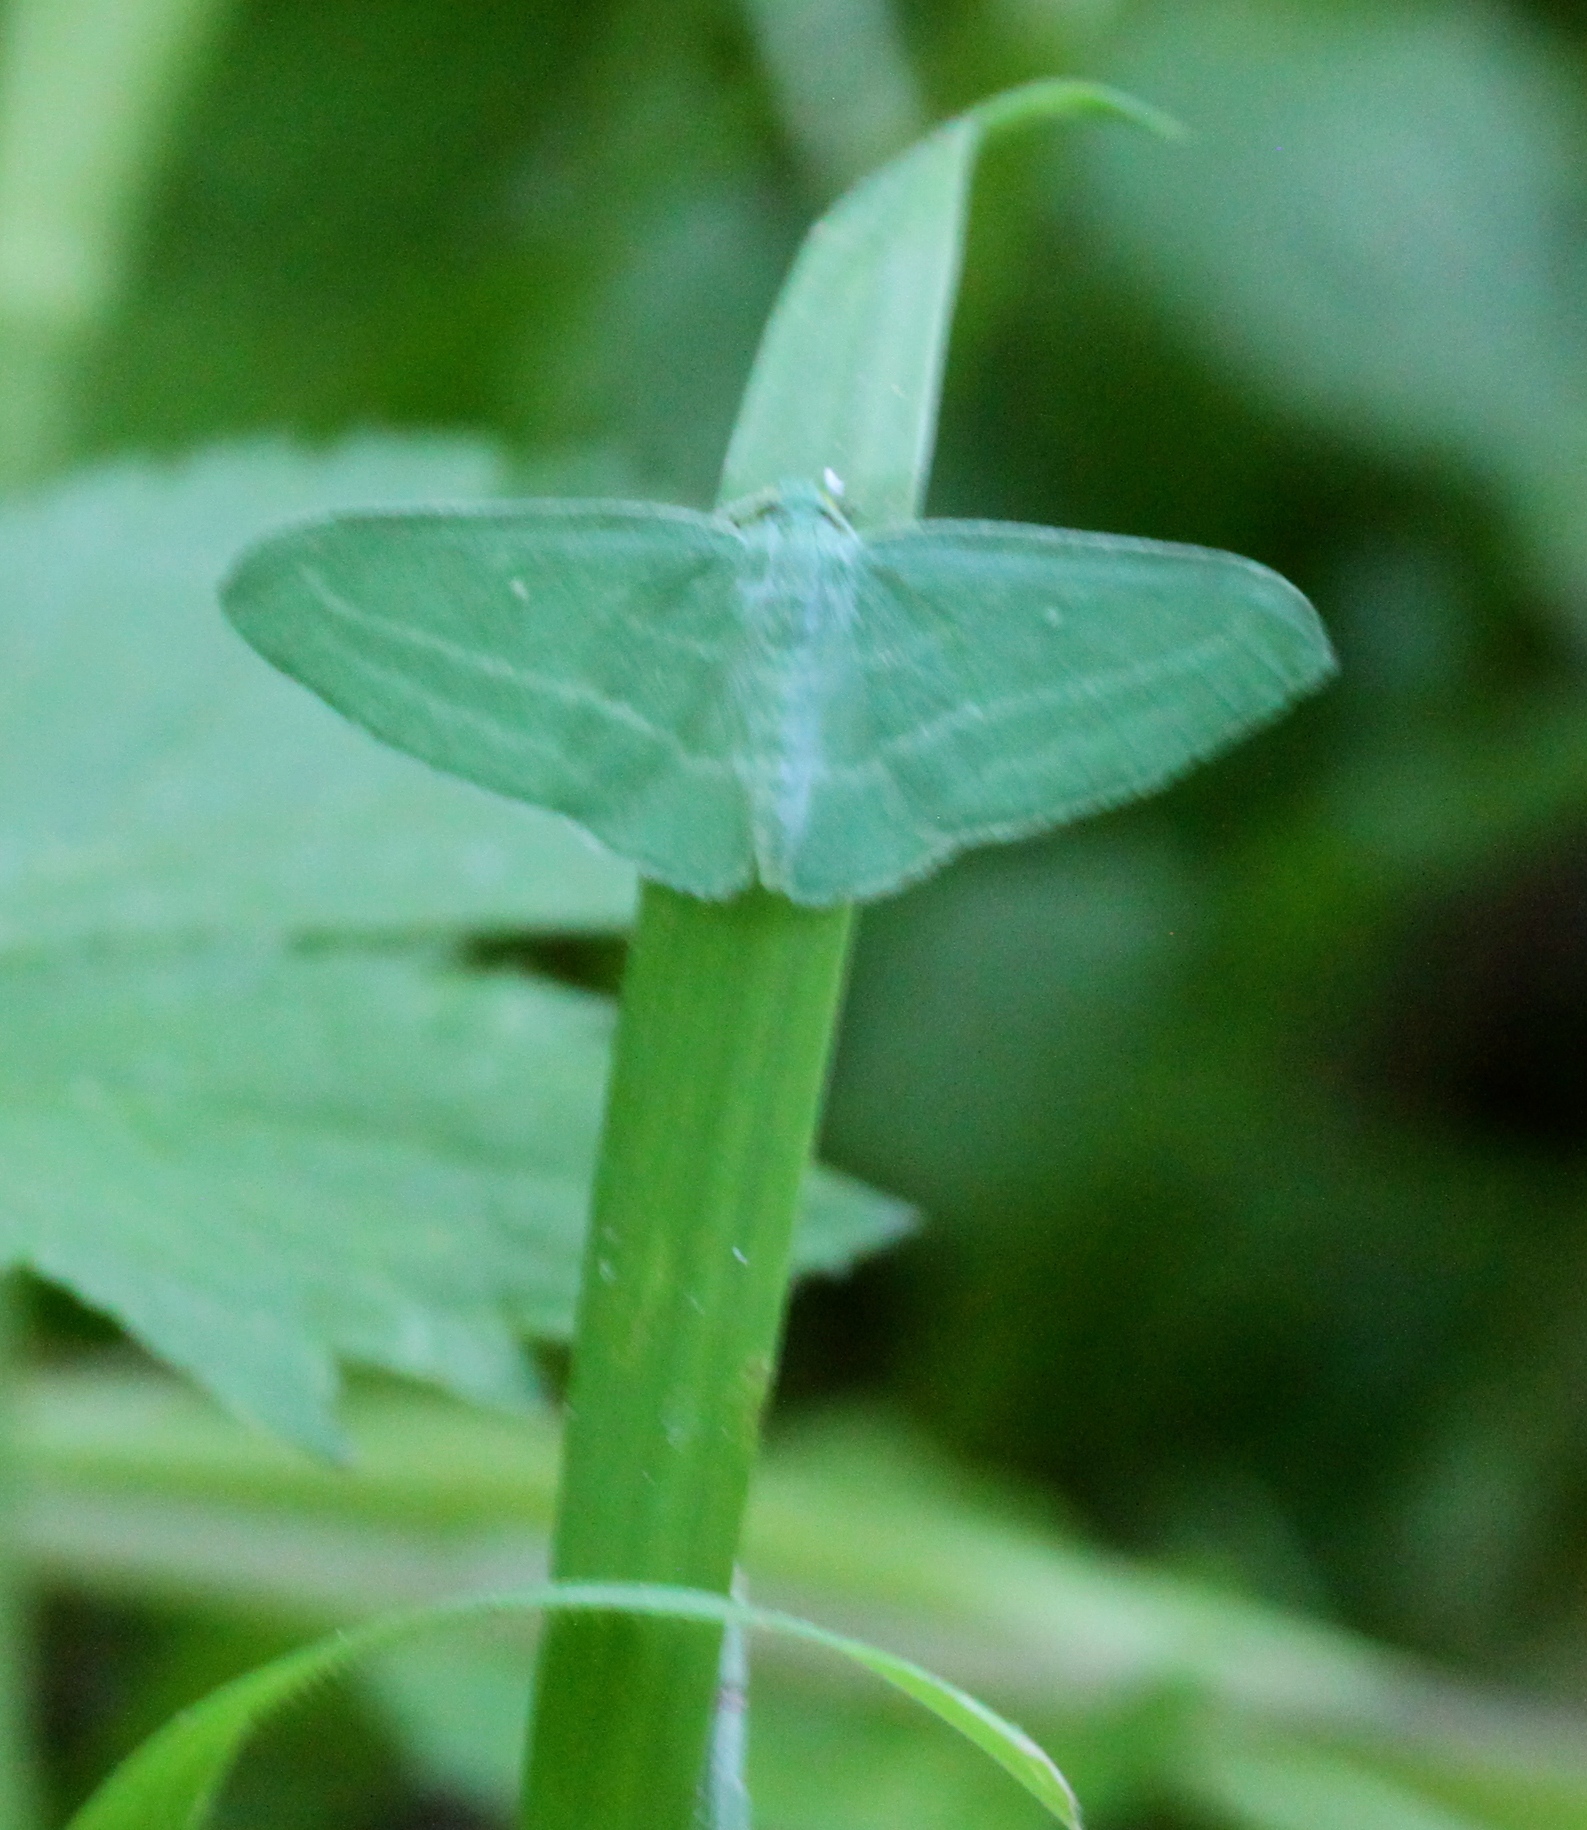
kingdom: Animalia
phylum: Arthropoda
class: Insecta
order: Lepidoptera
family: Geometridae
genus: Dyspteris
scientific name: Dyspteris abortivaria
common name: Bad-wing
